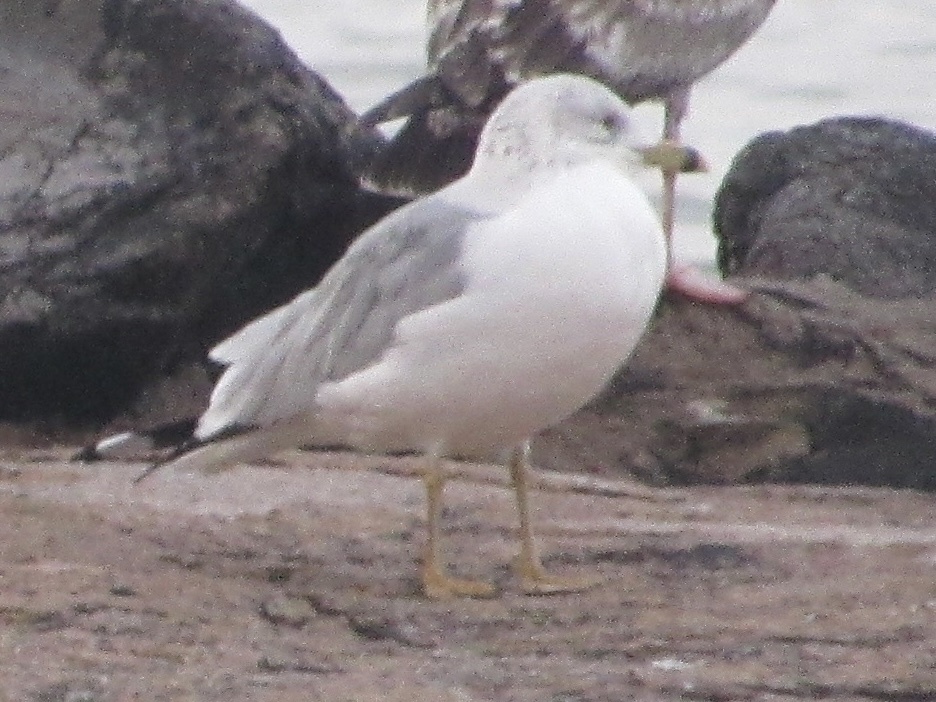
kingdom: Animalia
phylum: Chordata
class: Aves
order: Charadriiformes
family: Laridae
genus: Larus
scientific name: Larus delawarensis
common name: Ring-billed gull
